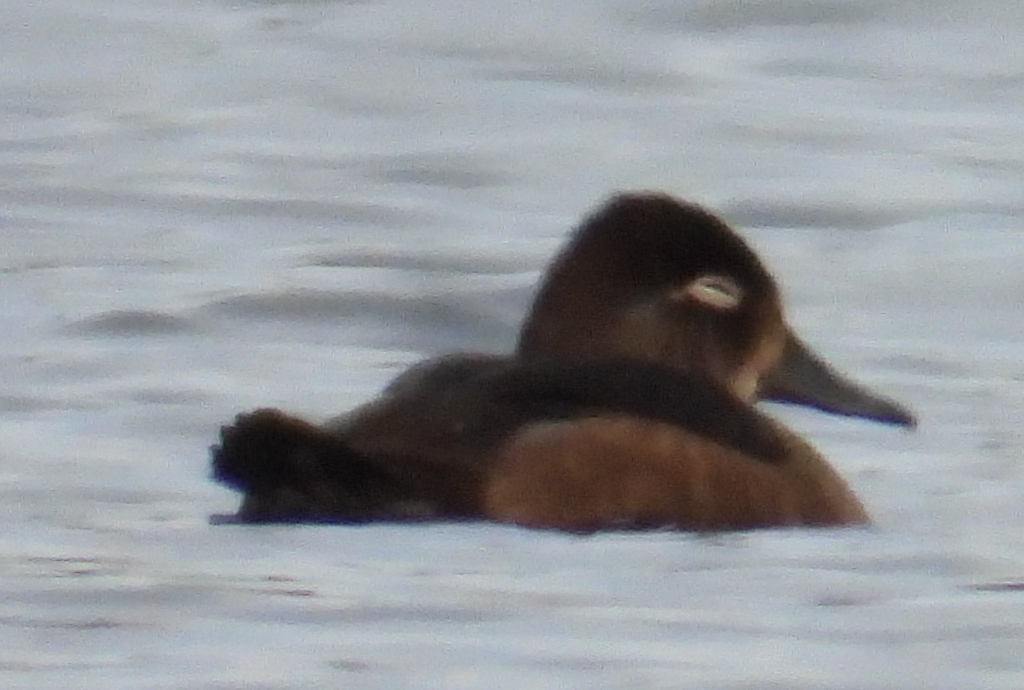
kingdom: Animalia
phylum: Chordata
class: Aves
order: Anseriformes
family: Anatidae
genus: Aythya
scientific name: Aythya collaris
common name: Ring-necked duck
